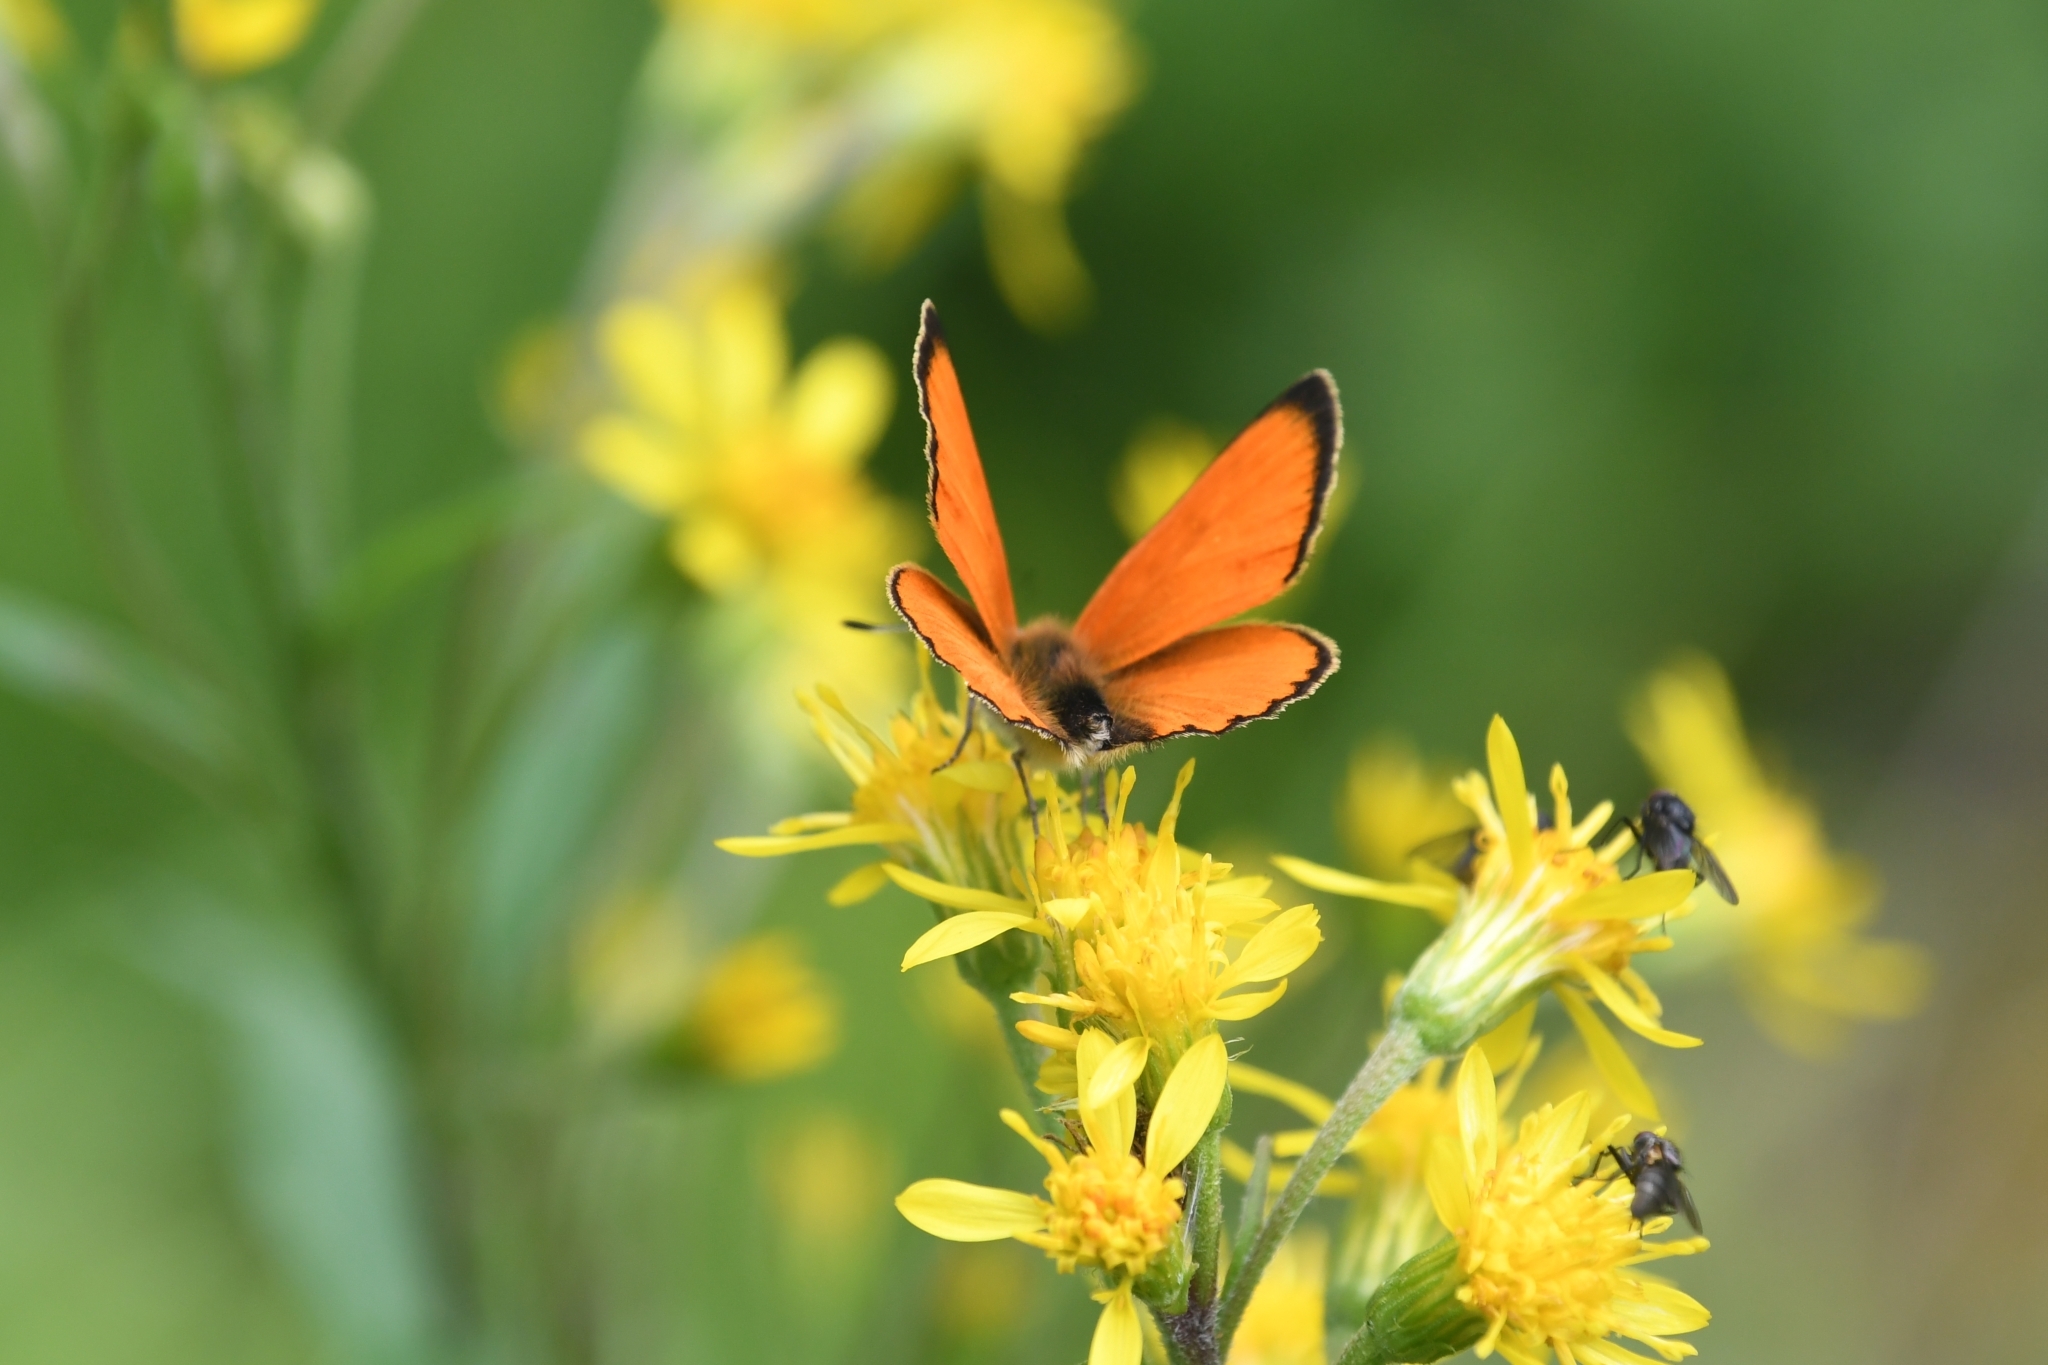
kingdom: Animalia
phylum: Arthropoda
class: Insecta
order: Lepidoptera
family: Lycaenidae
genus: Lycaena
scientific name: Lycaena virgaureae
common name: Scarce copper
